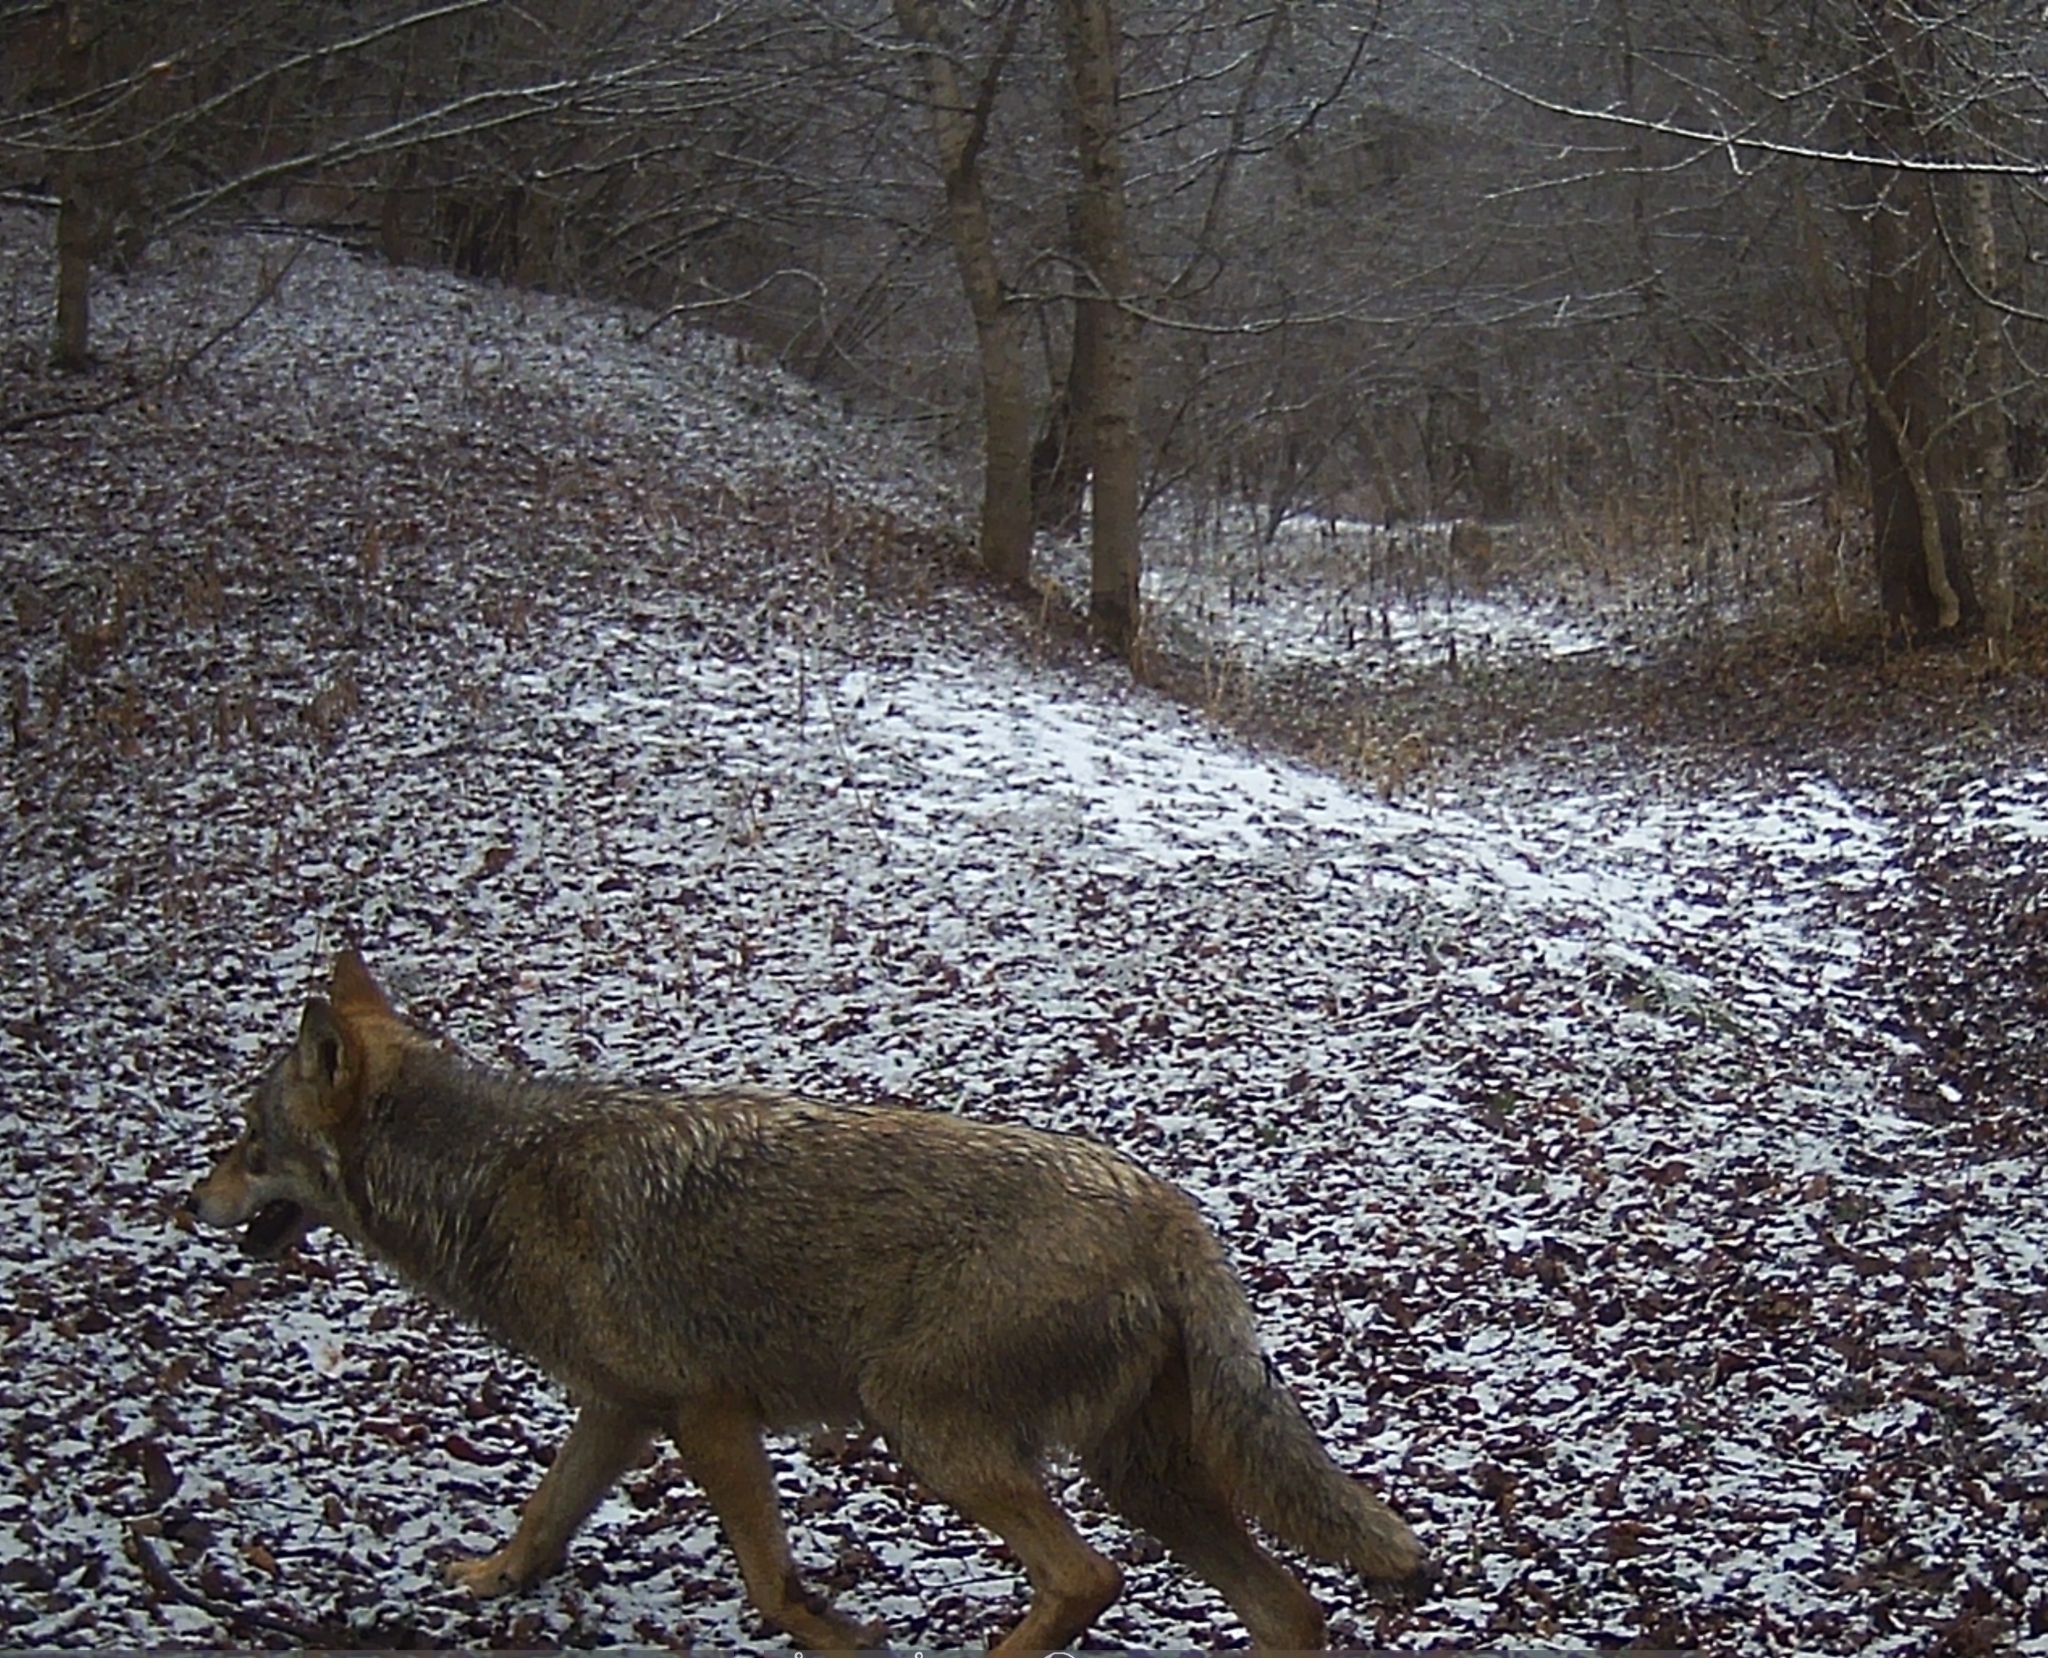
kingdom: Animalia
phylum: Chordata
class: Mammalia
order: Carnivora
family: Canidae
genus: Canis
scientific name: Canis lupus
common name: Gray wolf
